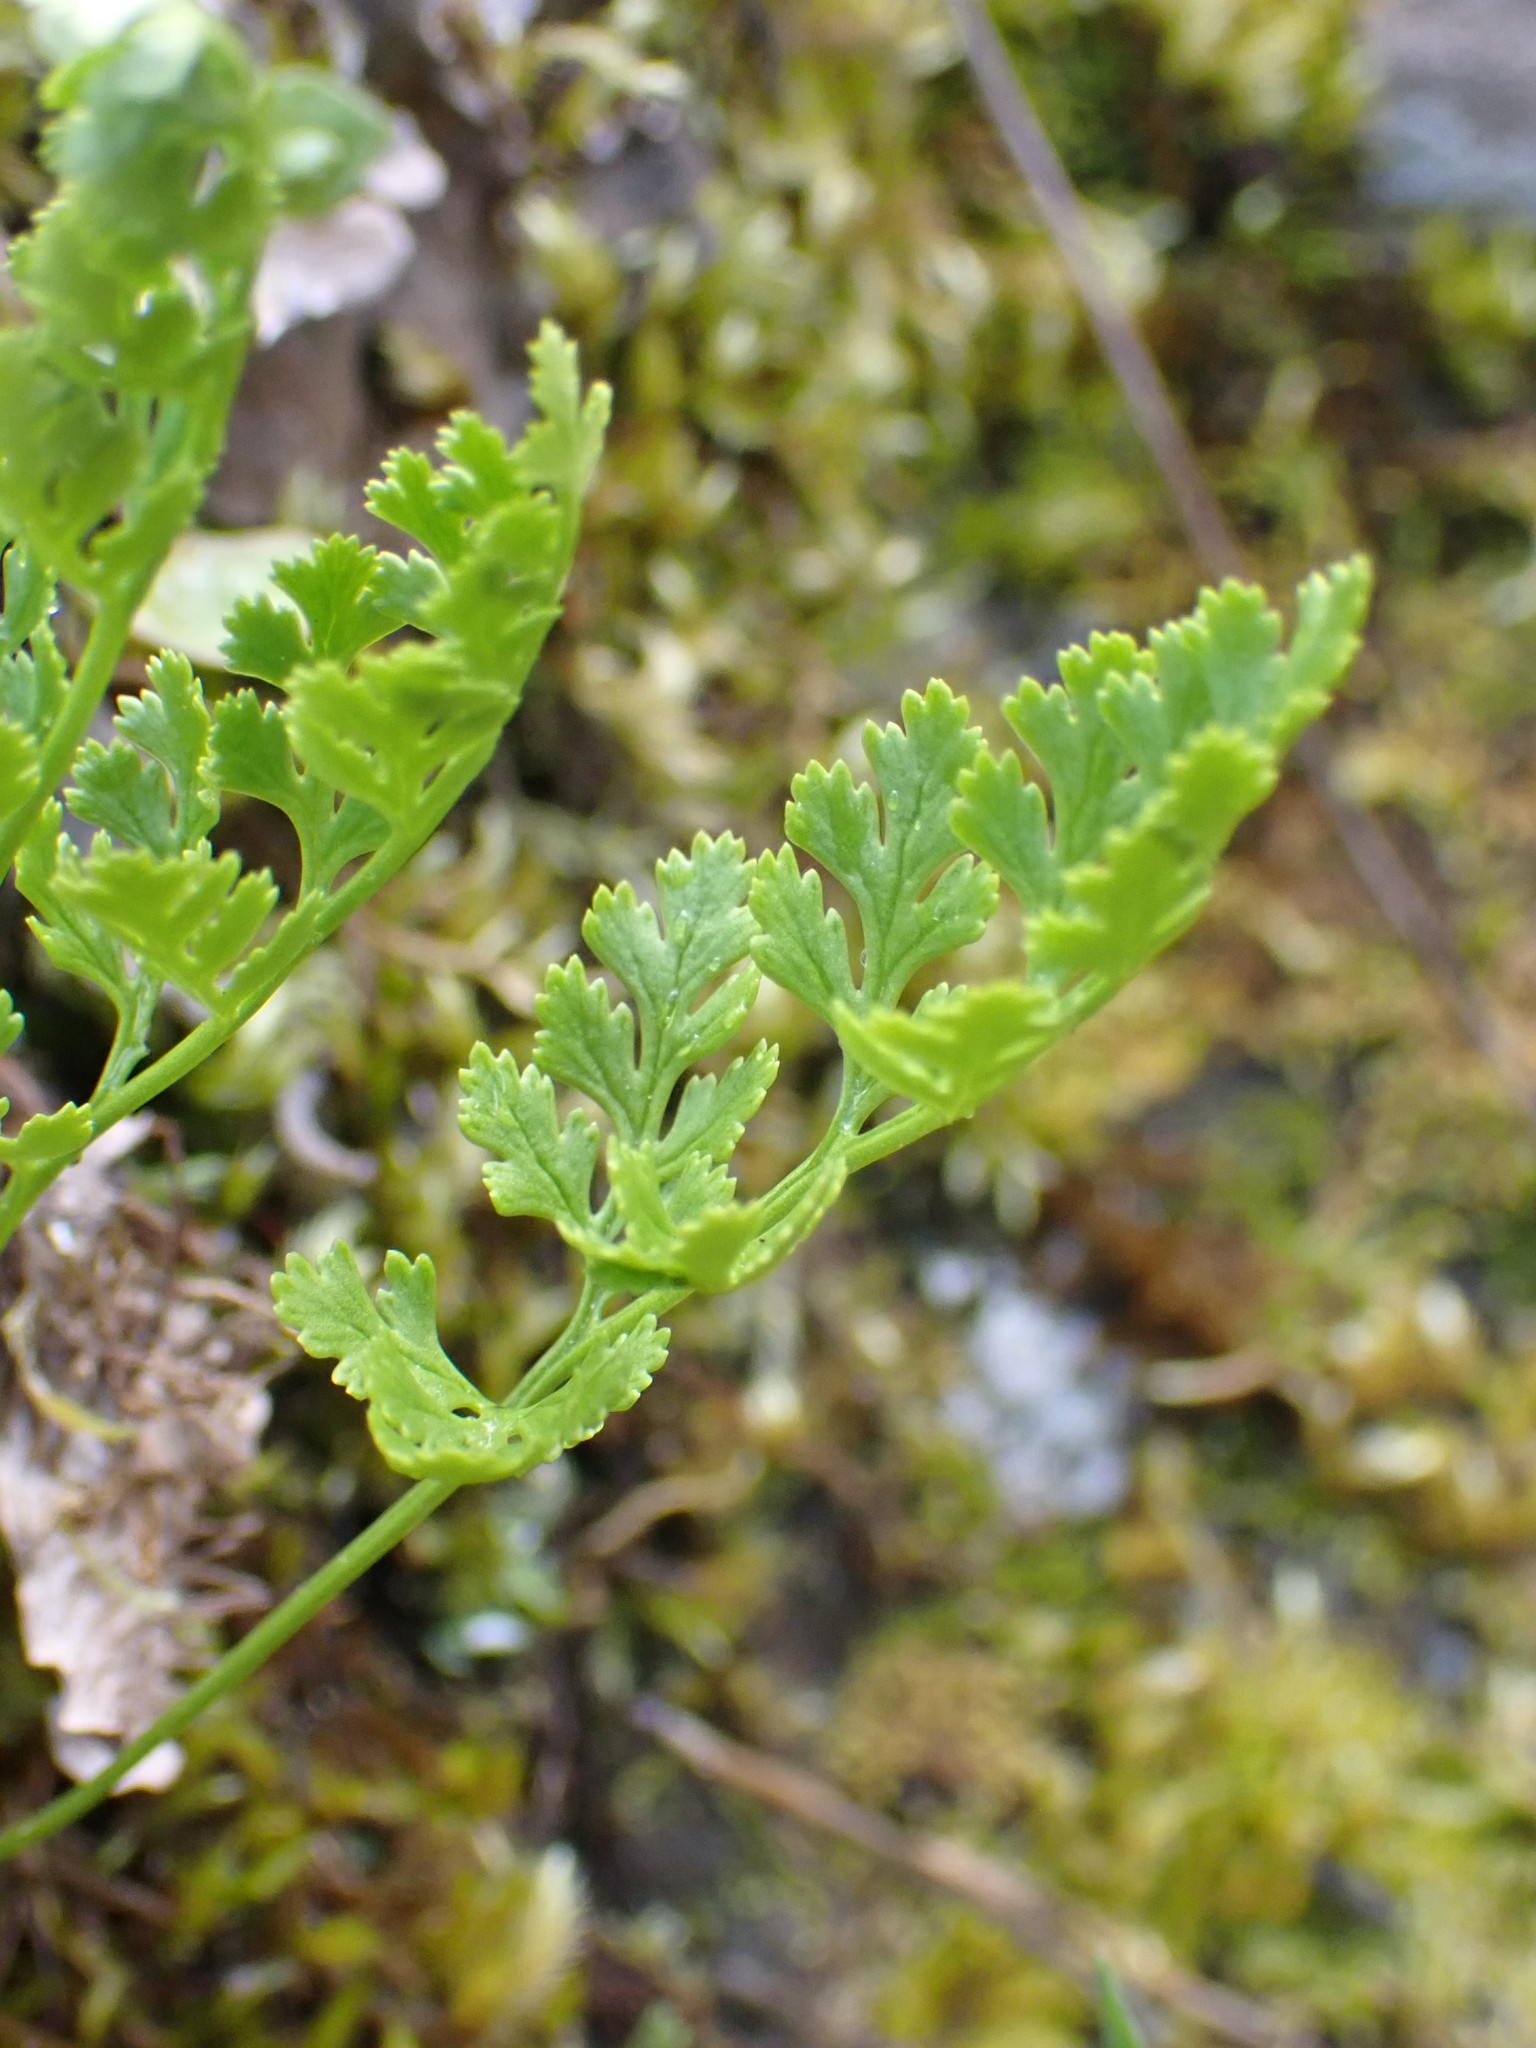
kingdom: Plantae
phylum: Tracheophyta
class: Polypodiopsida
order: Polypodiales
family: Pteridaceae
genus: Cryptogramma
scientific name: Cryptogramma acrostichoides
